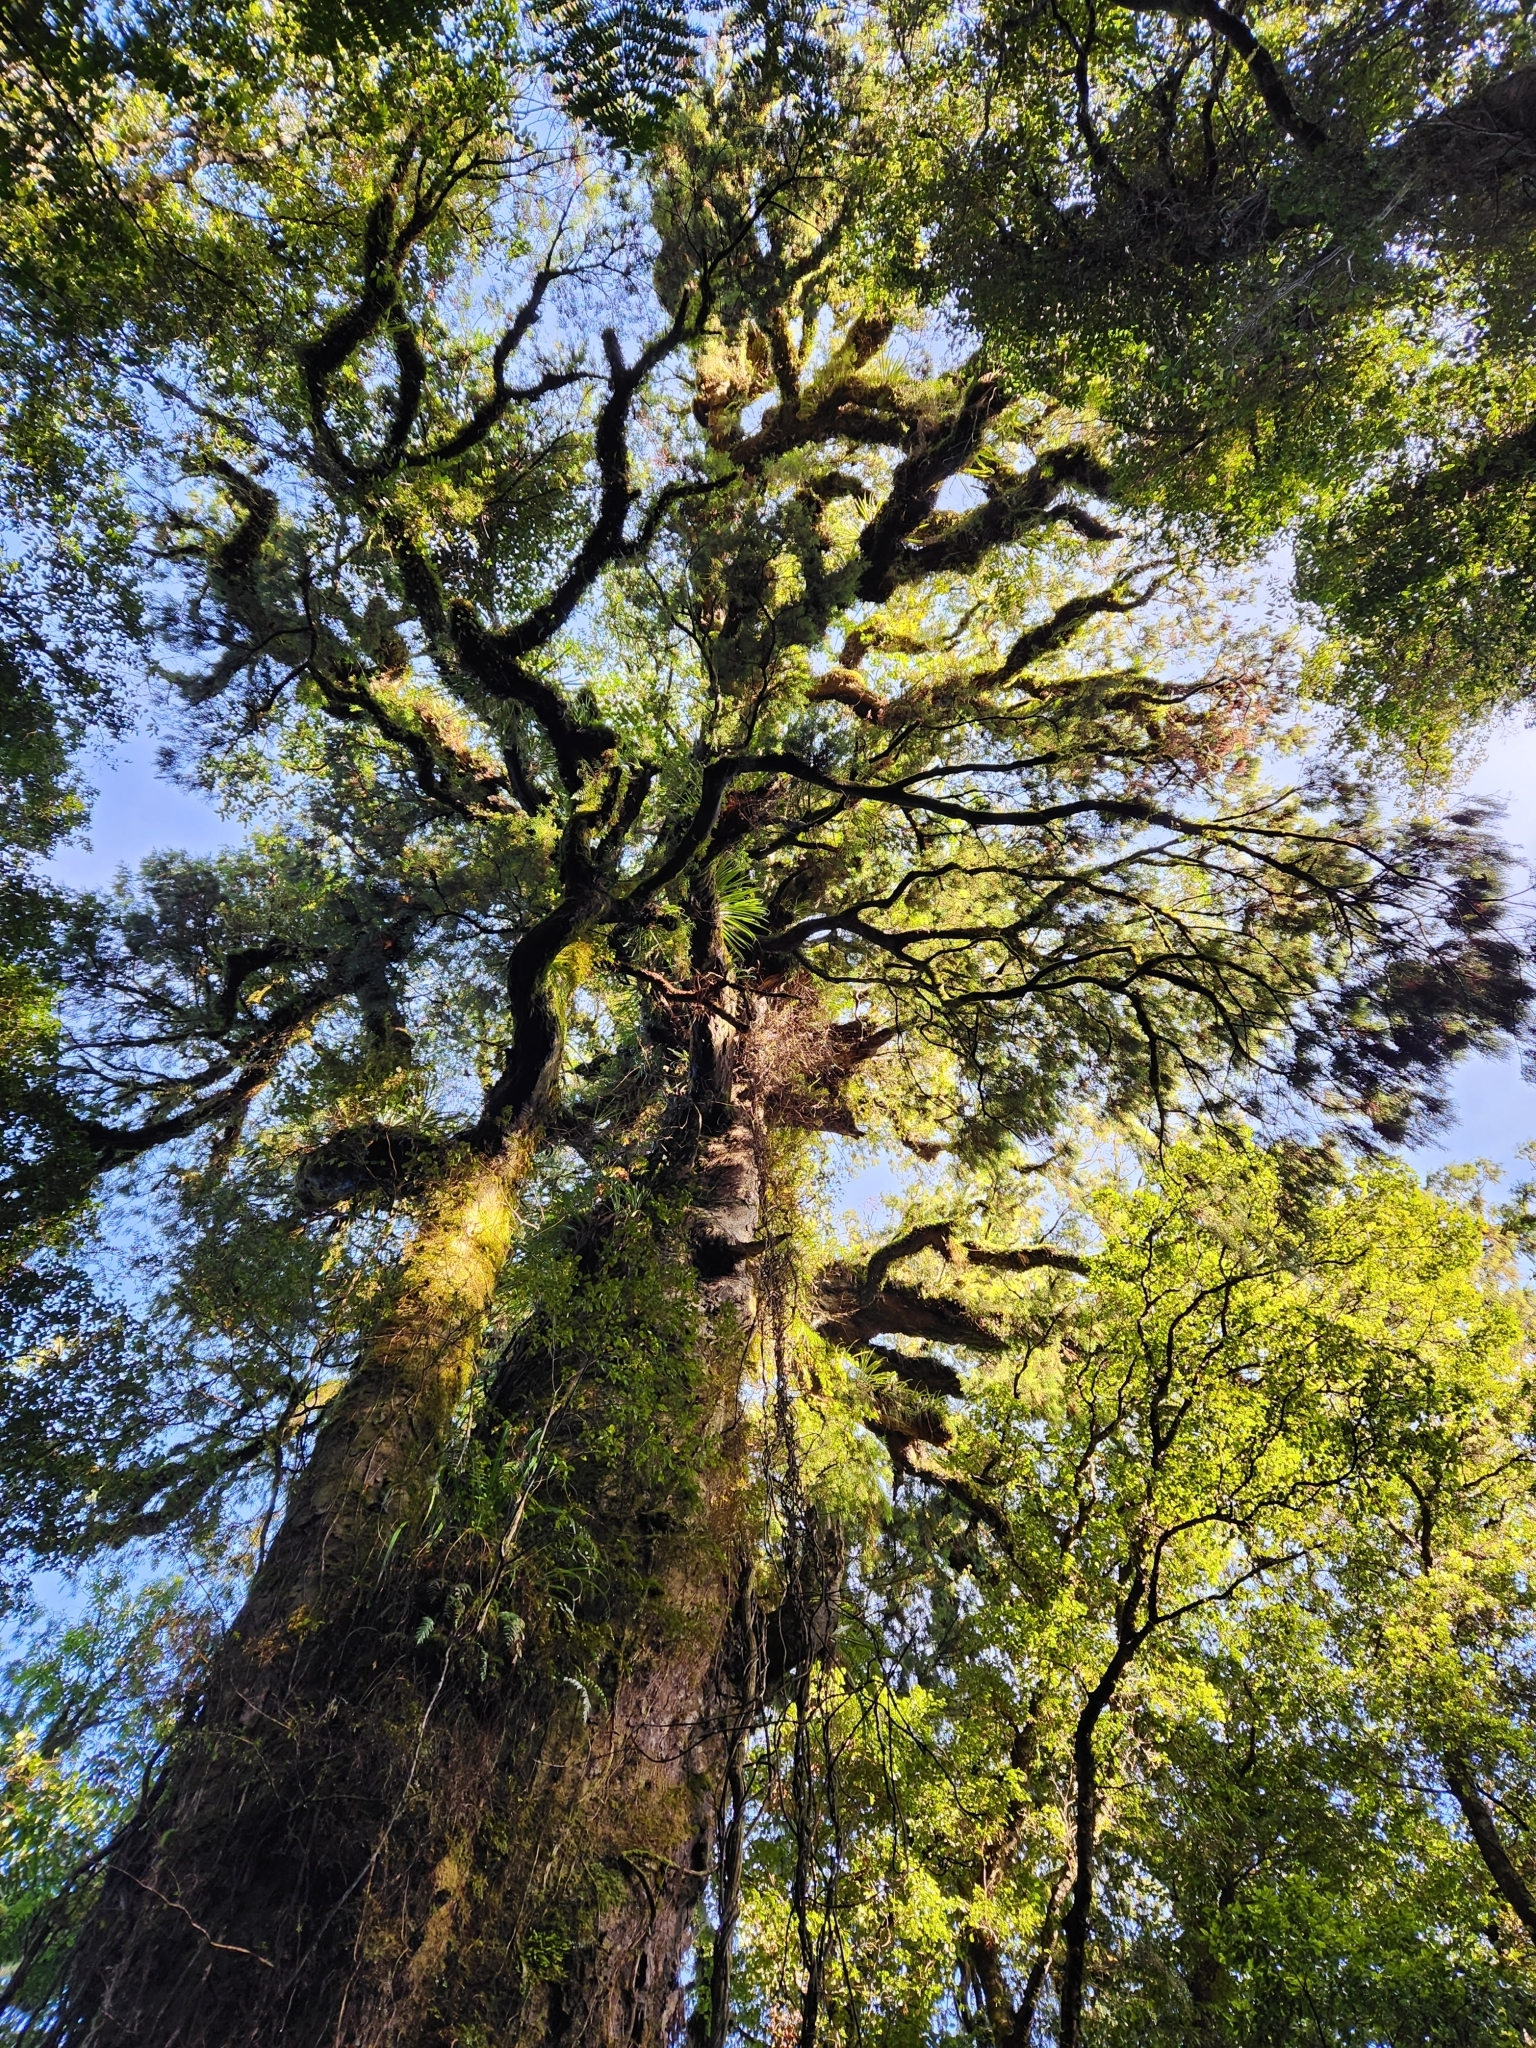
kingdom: Plantae
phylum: Tracheophyta
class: Pinopsida
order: Pinales
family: Podocarpaceae
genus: Dacrydium
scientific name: Dacrydium cupressinum
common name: Red pine
